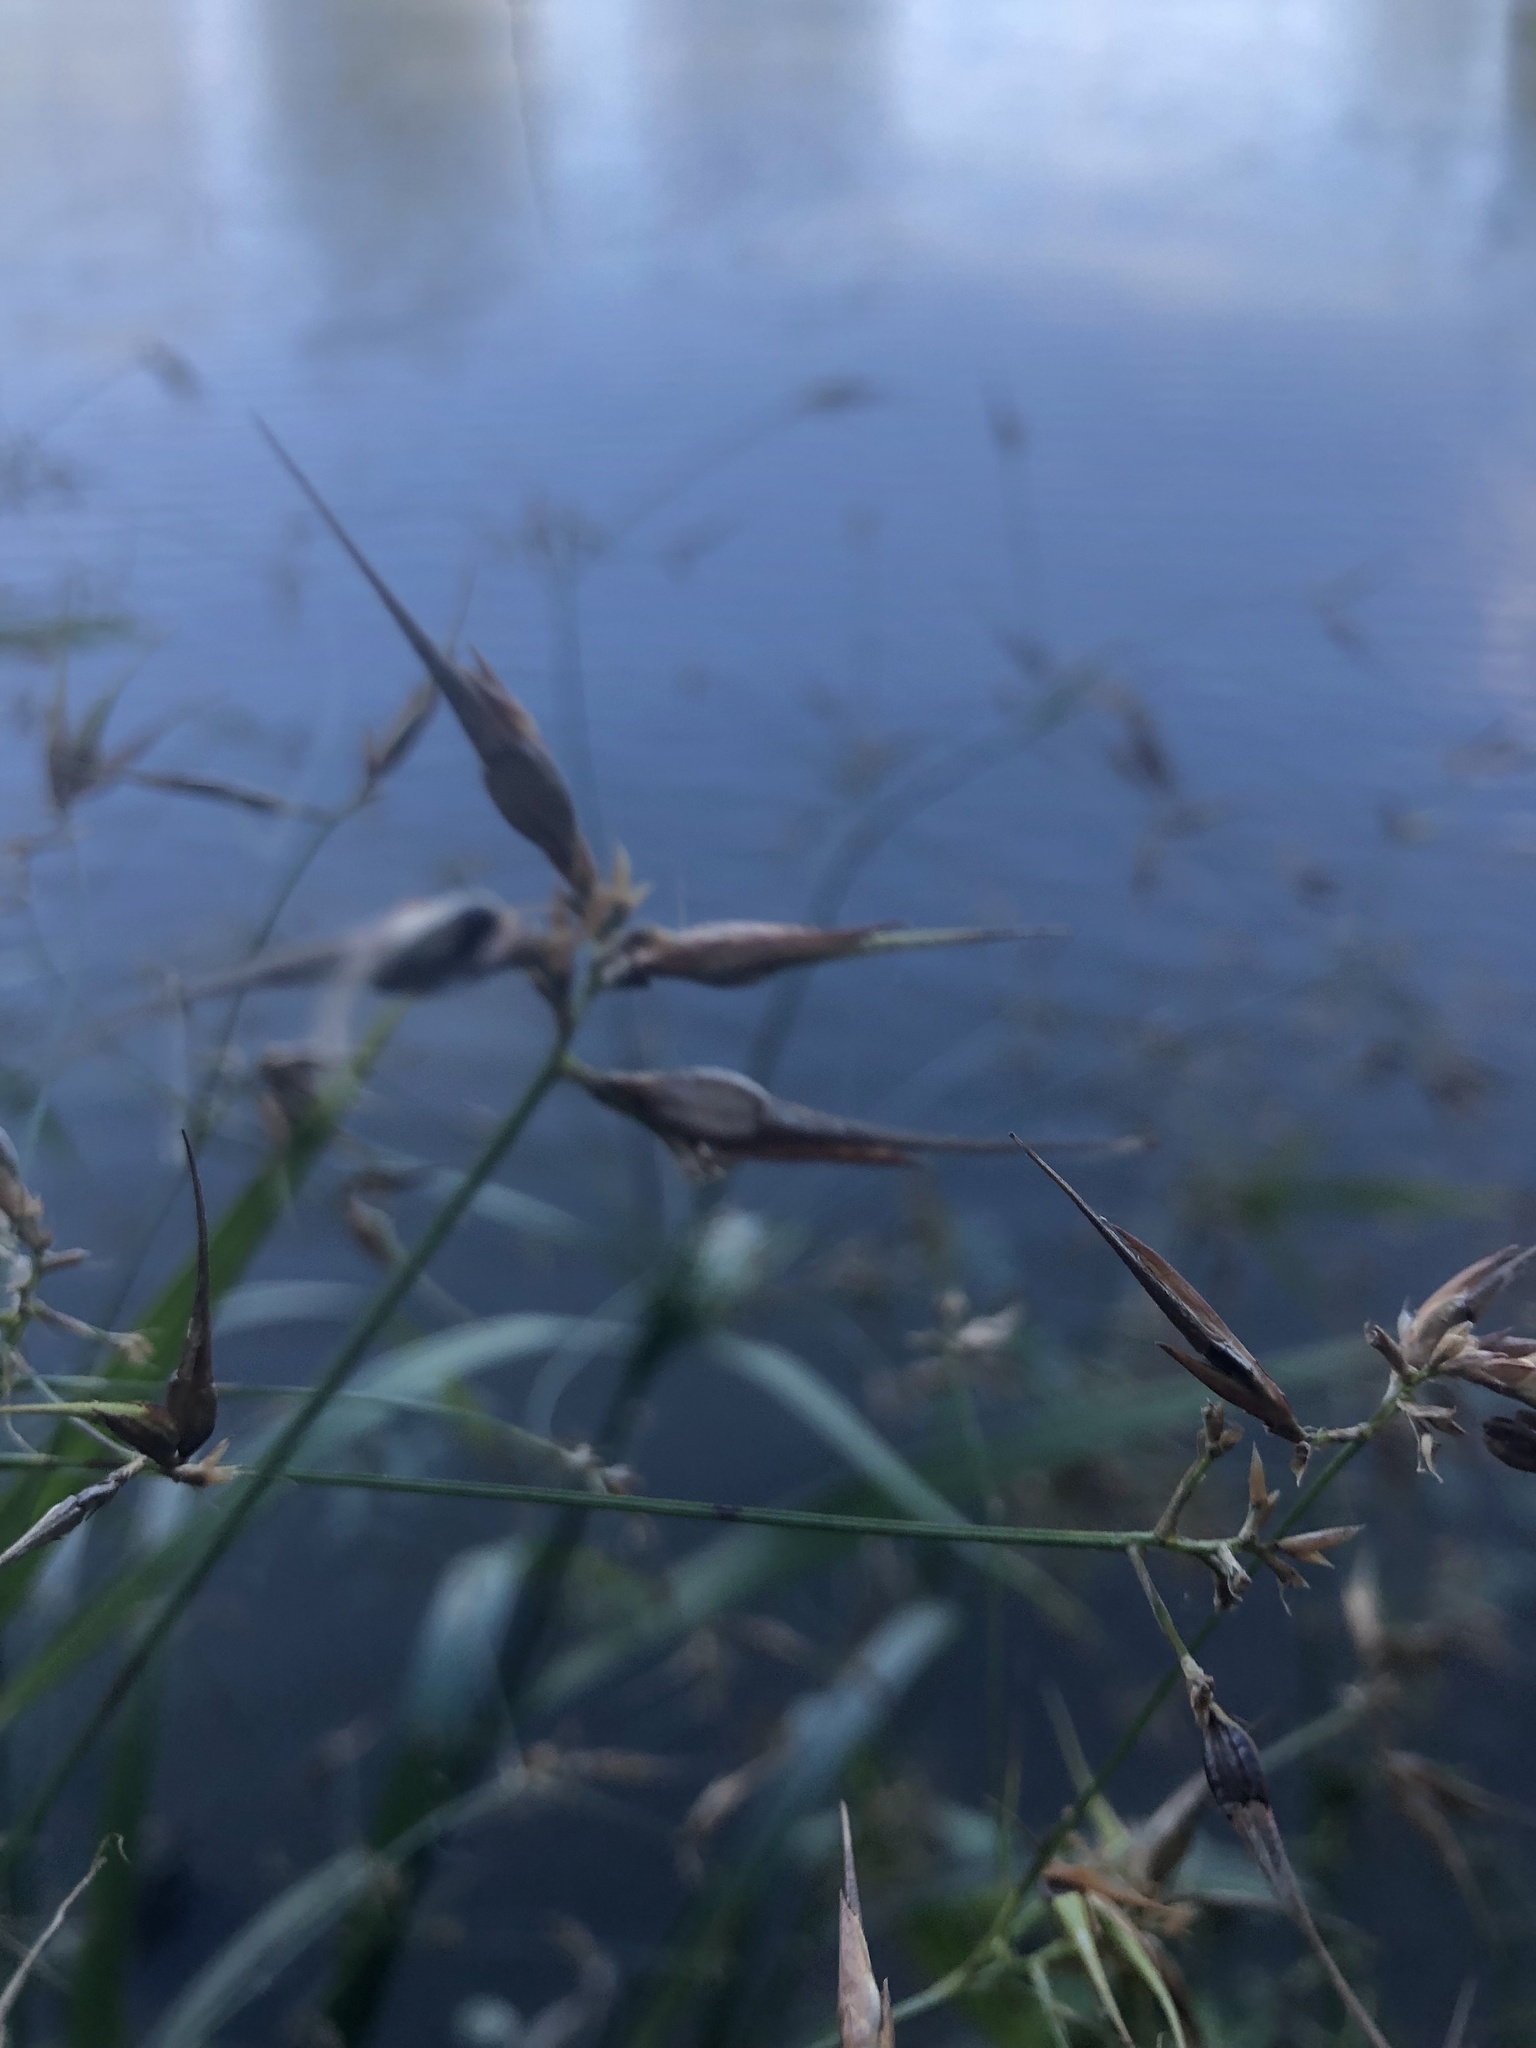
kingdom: Plantae
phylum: Tracheophyta
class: Liliopsida
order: Poales
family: Cyperaceae
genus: Rhynchospora
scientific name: Rhynchospora corniculata
